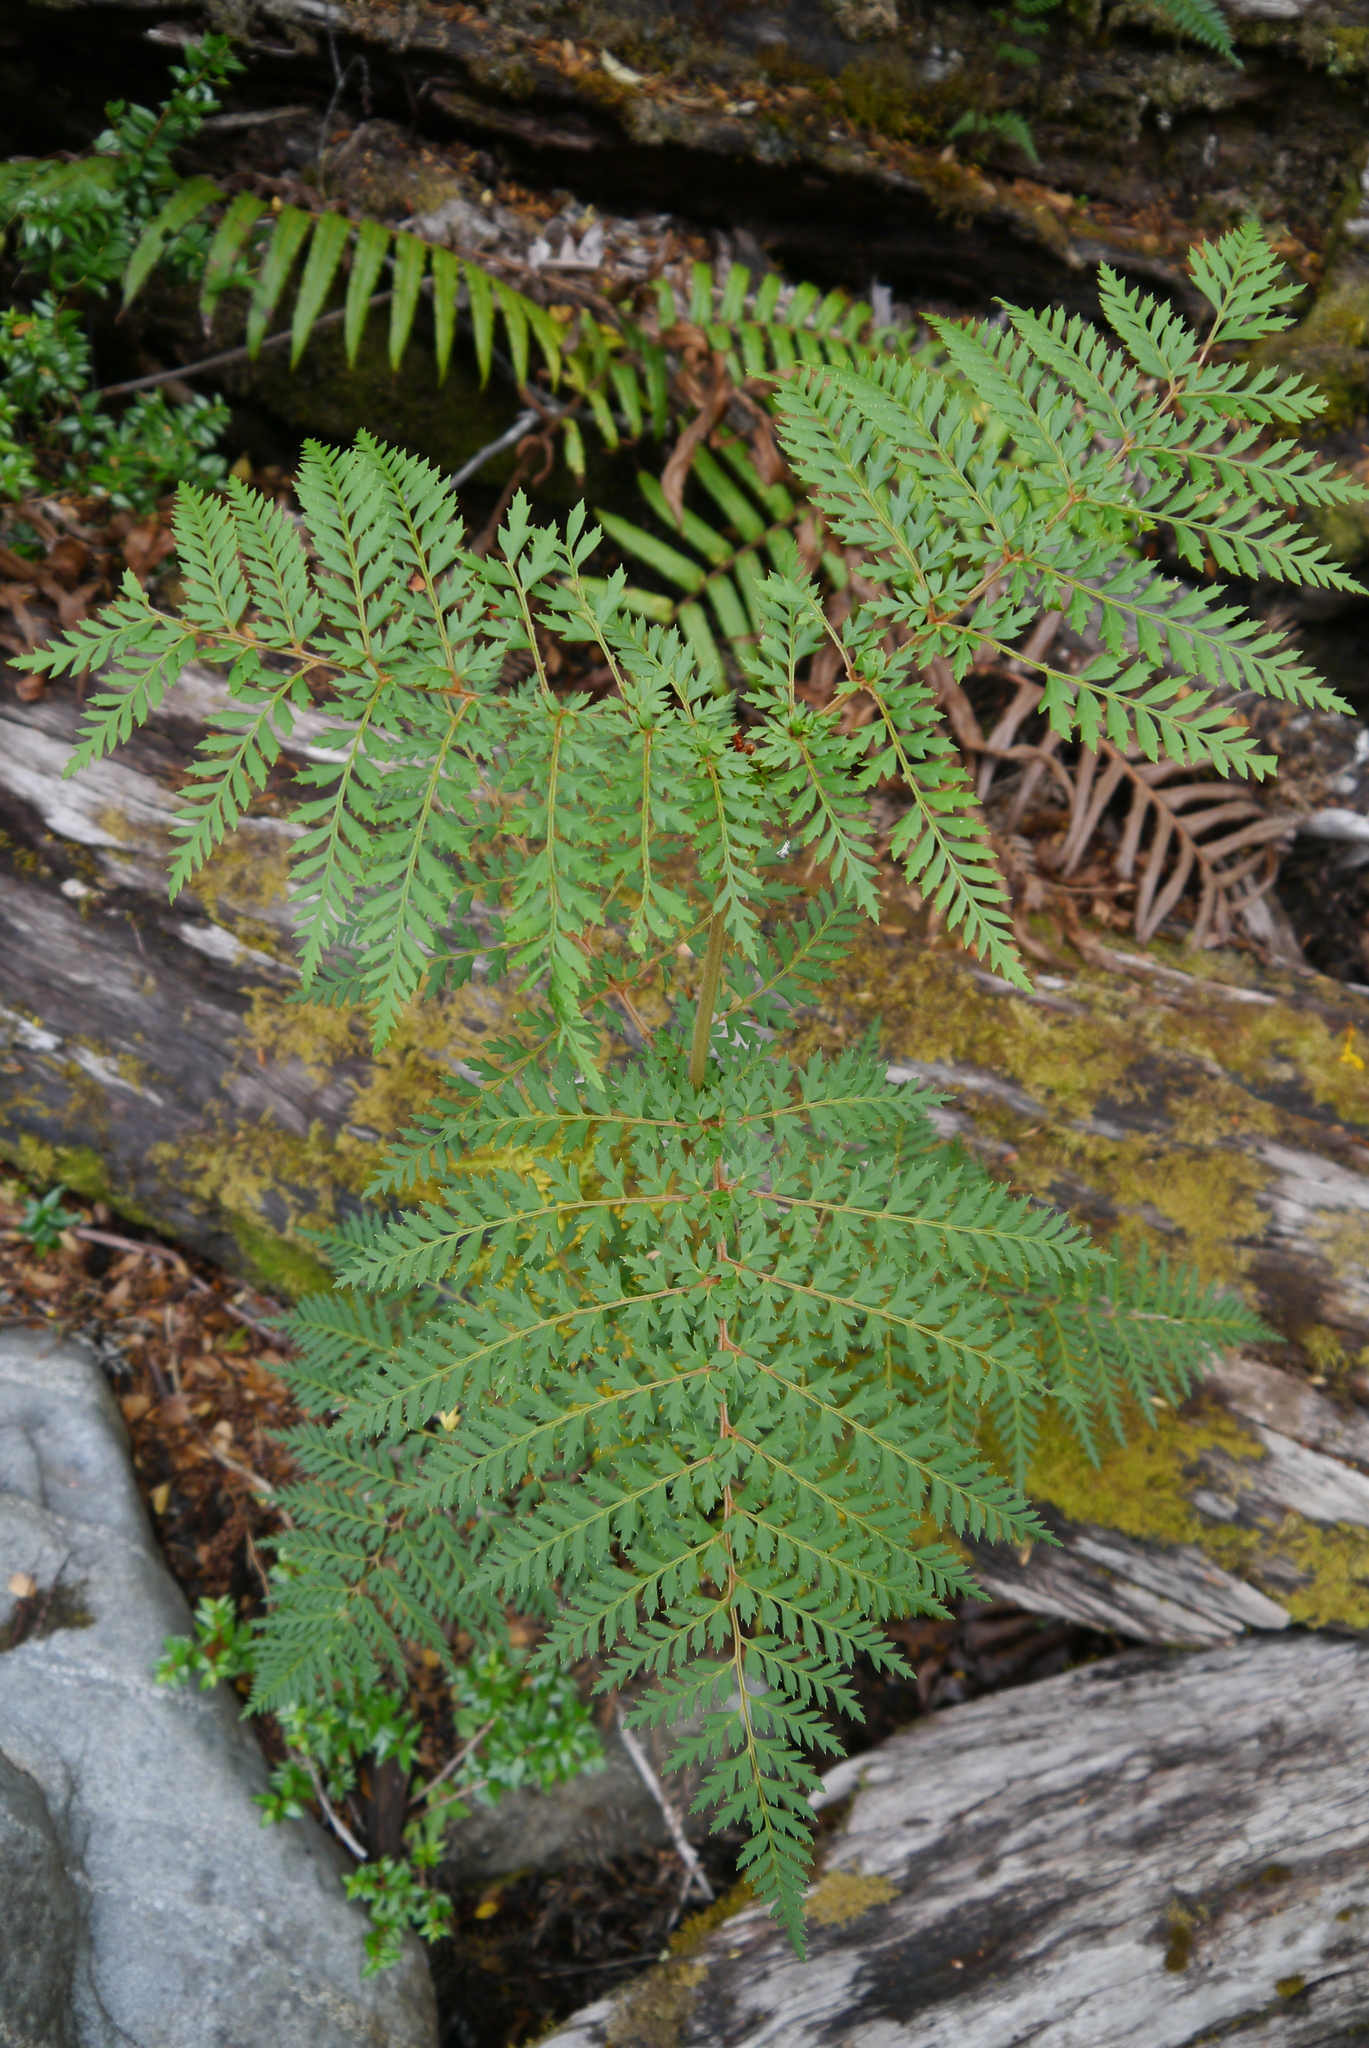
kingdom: Plantae
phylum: Tracheophyta
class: Magnoliopsida
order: Proteales
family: Proteaceae
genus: Lomatia
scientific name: Lomatia ferruginea
